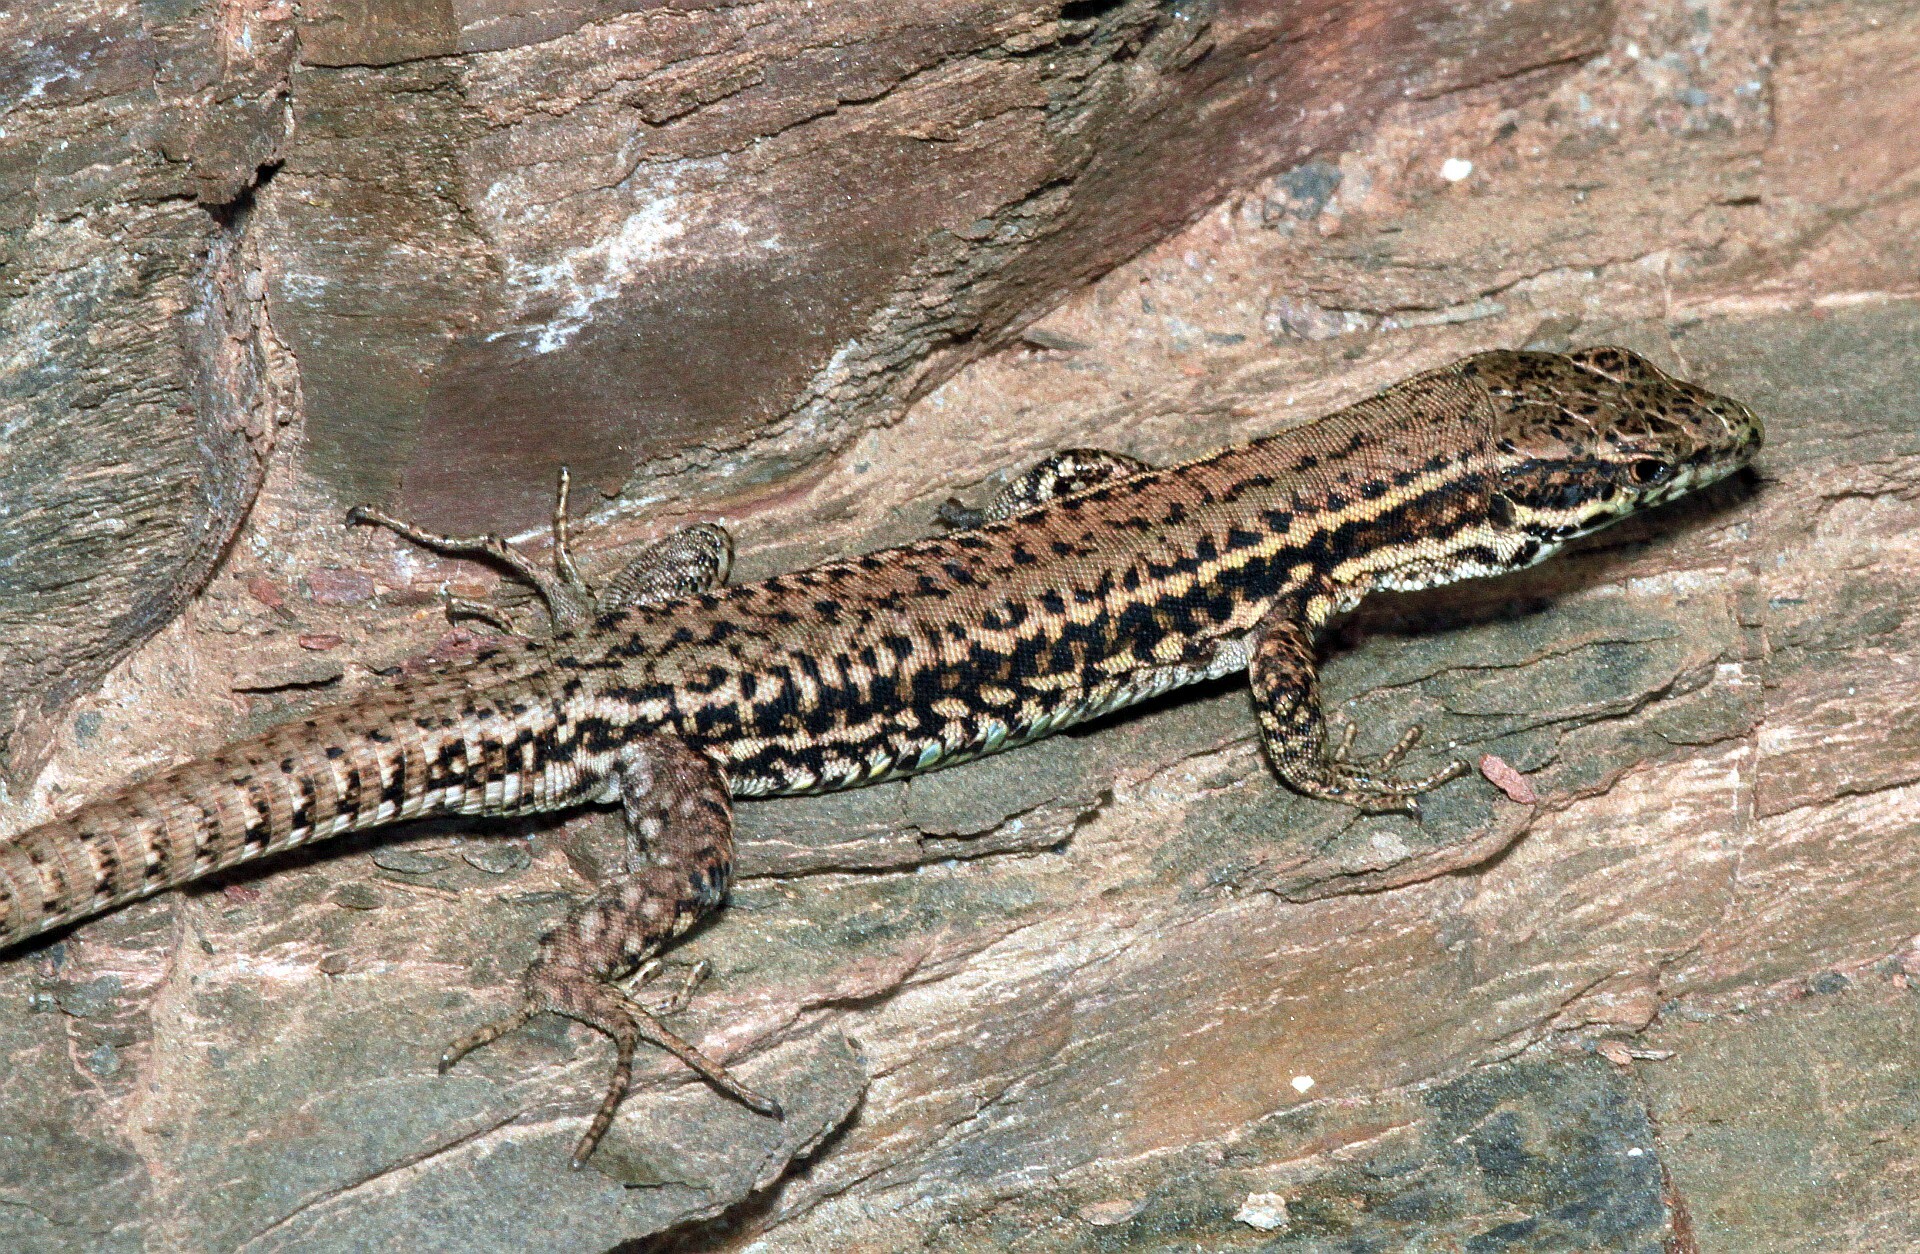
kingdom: Animalia
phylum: Chordata
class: Squamata
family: Lacertidae
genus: Podarcis
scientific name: Podarcis muralis
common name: Common wall lizard
